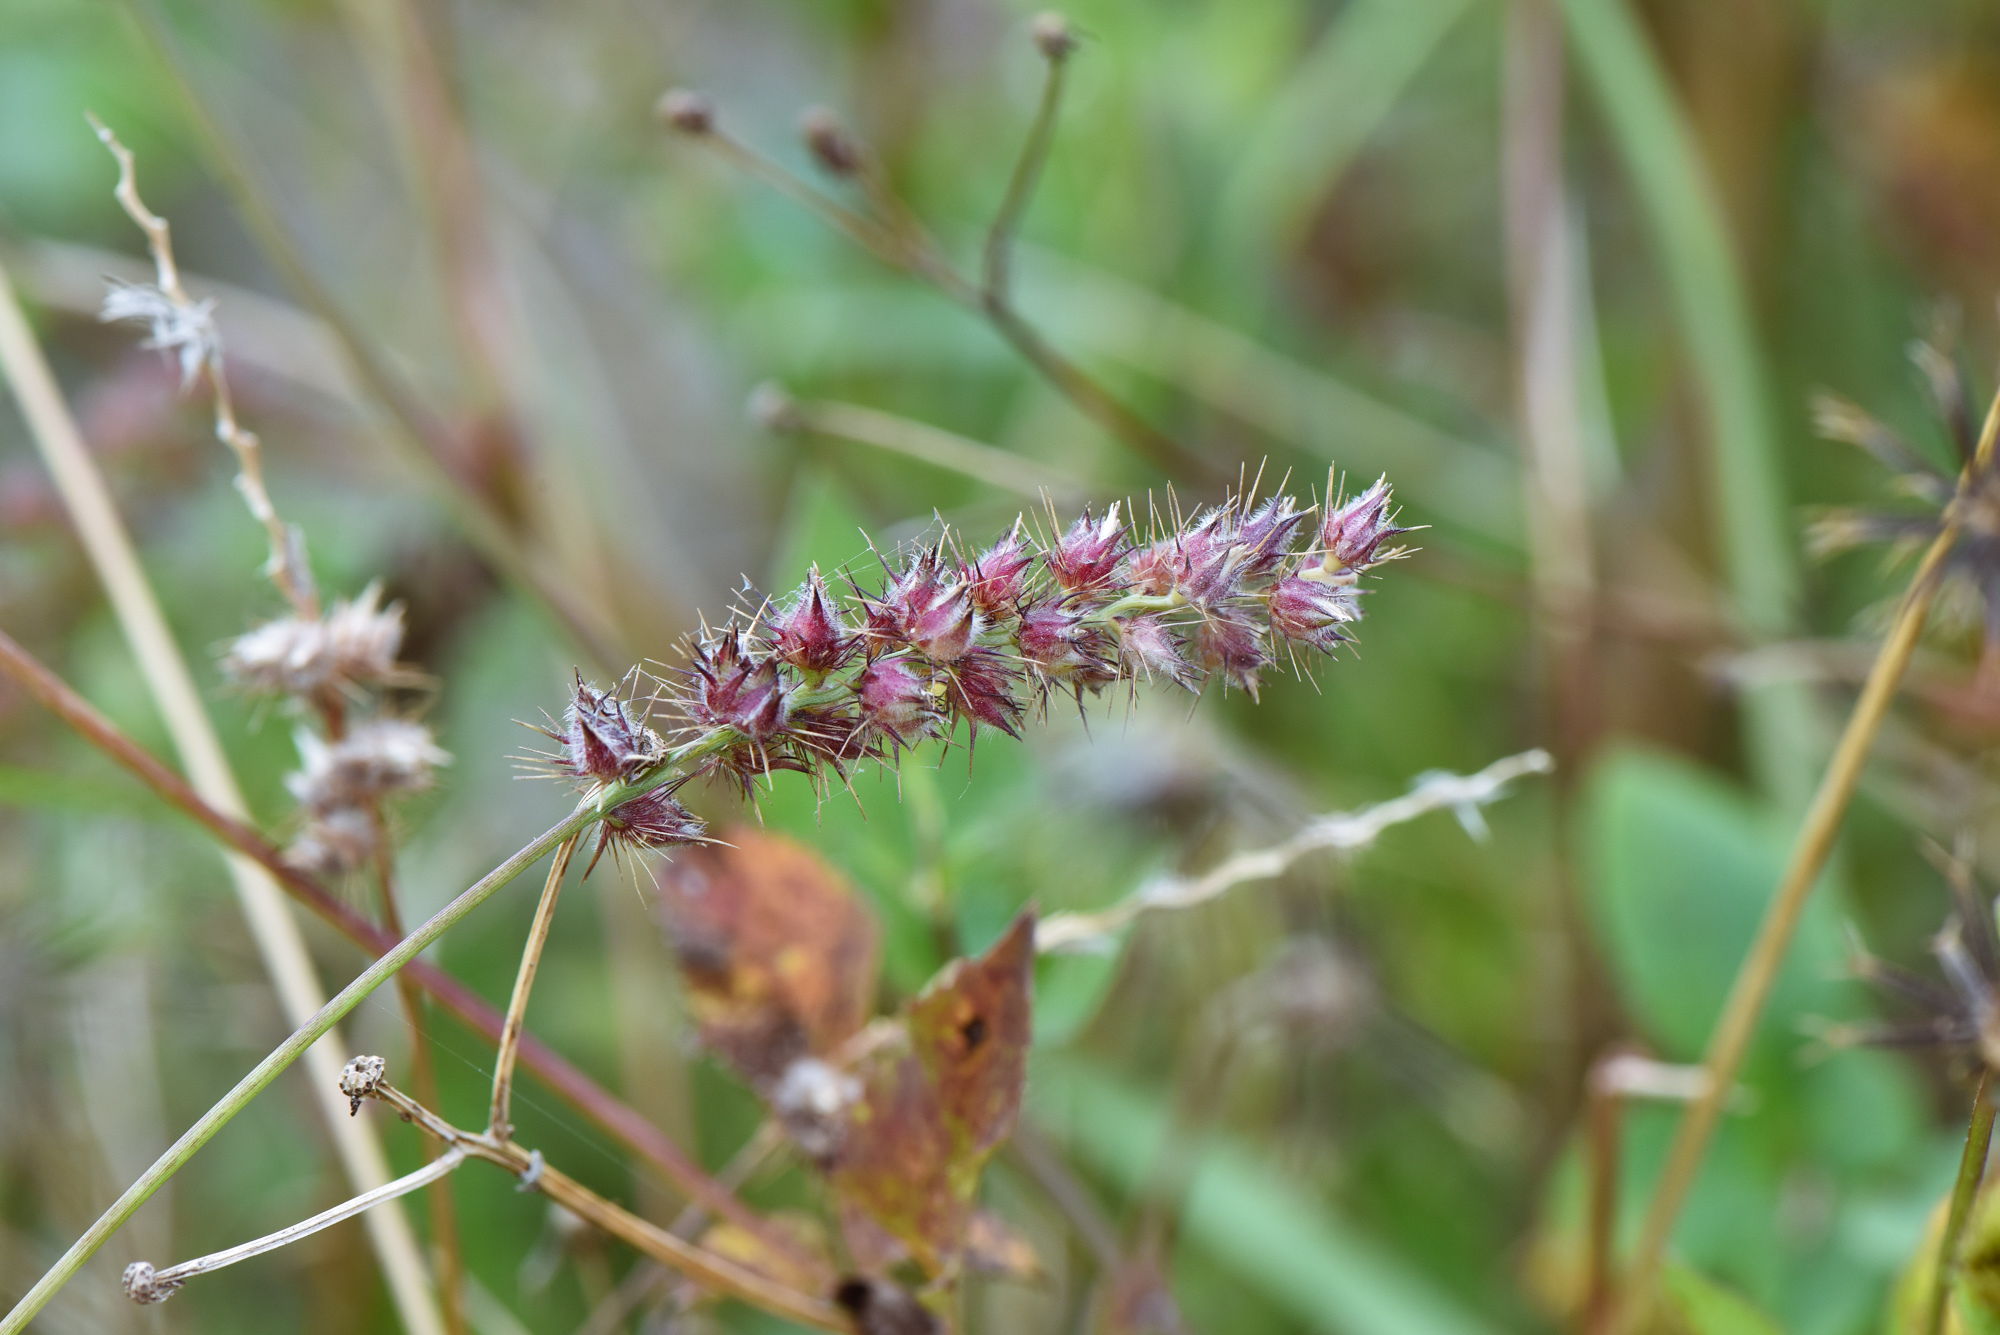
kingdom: Plantae
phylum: Tracheophyta
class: Liliopsida
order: Poales
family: Poaceae
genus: Cenchrus
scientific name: Cenchrus echinatus
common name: Southern sandbur
